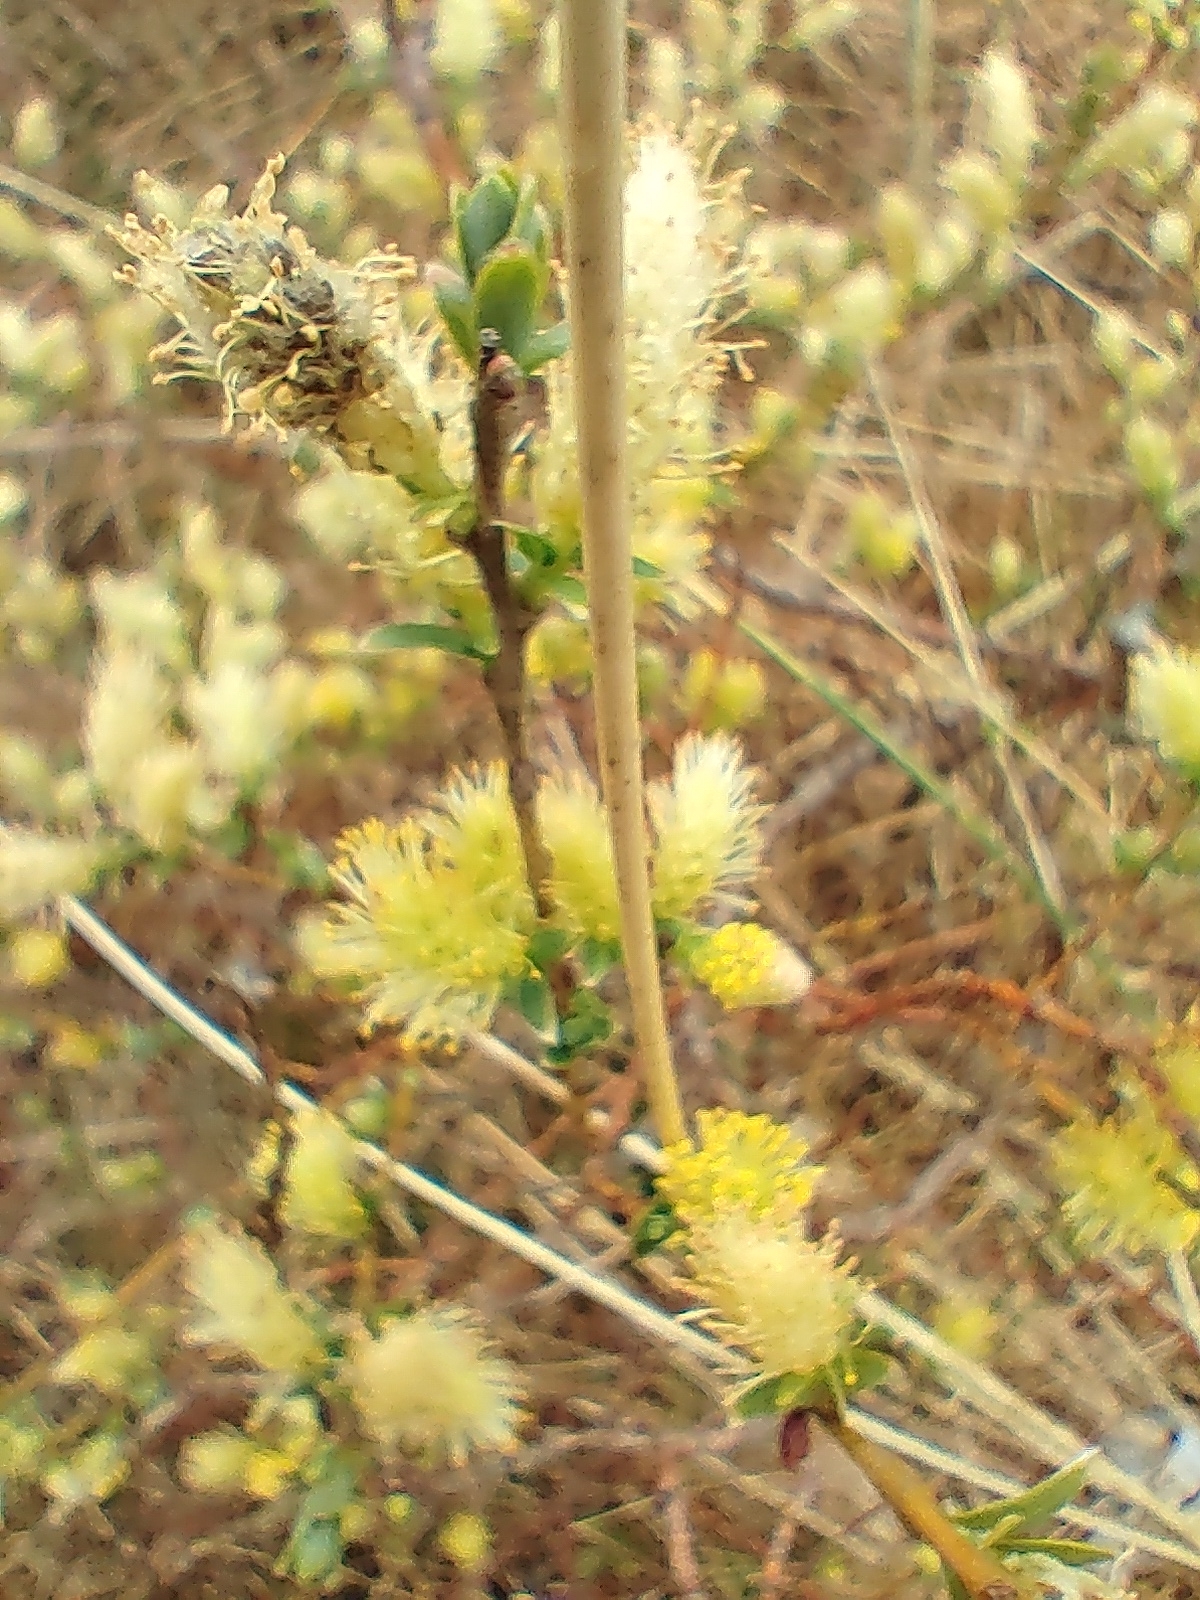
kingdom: Plantae
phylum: Tracheophyta
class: Magnoliopsida
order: Malpighiales
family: Salicaceae
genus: Salix
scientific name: Salix repens
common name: Creeping willow
